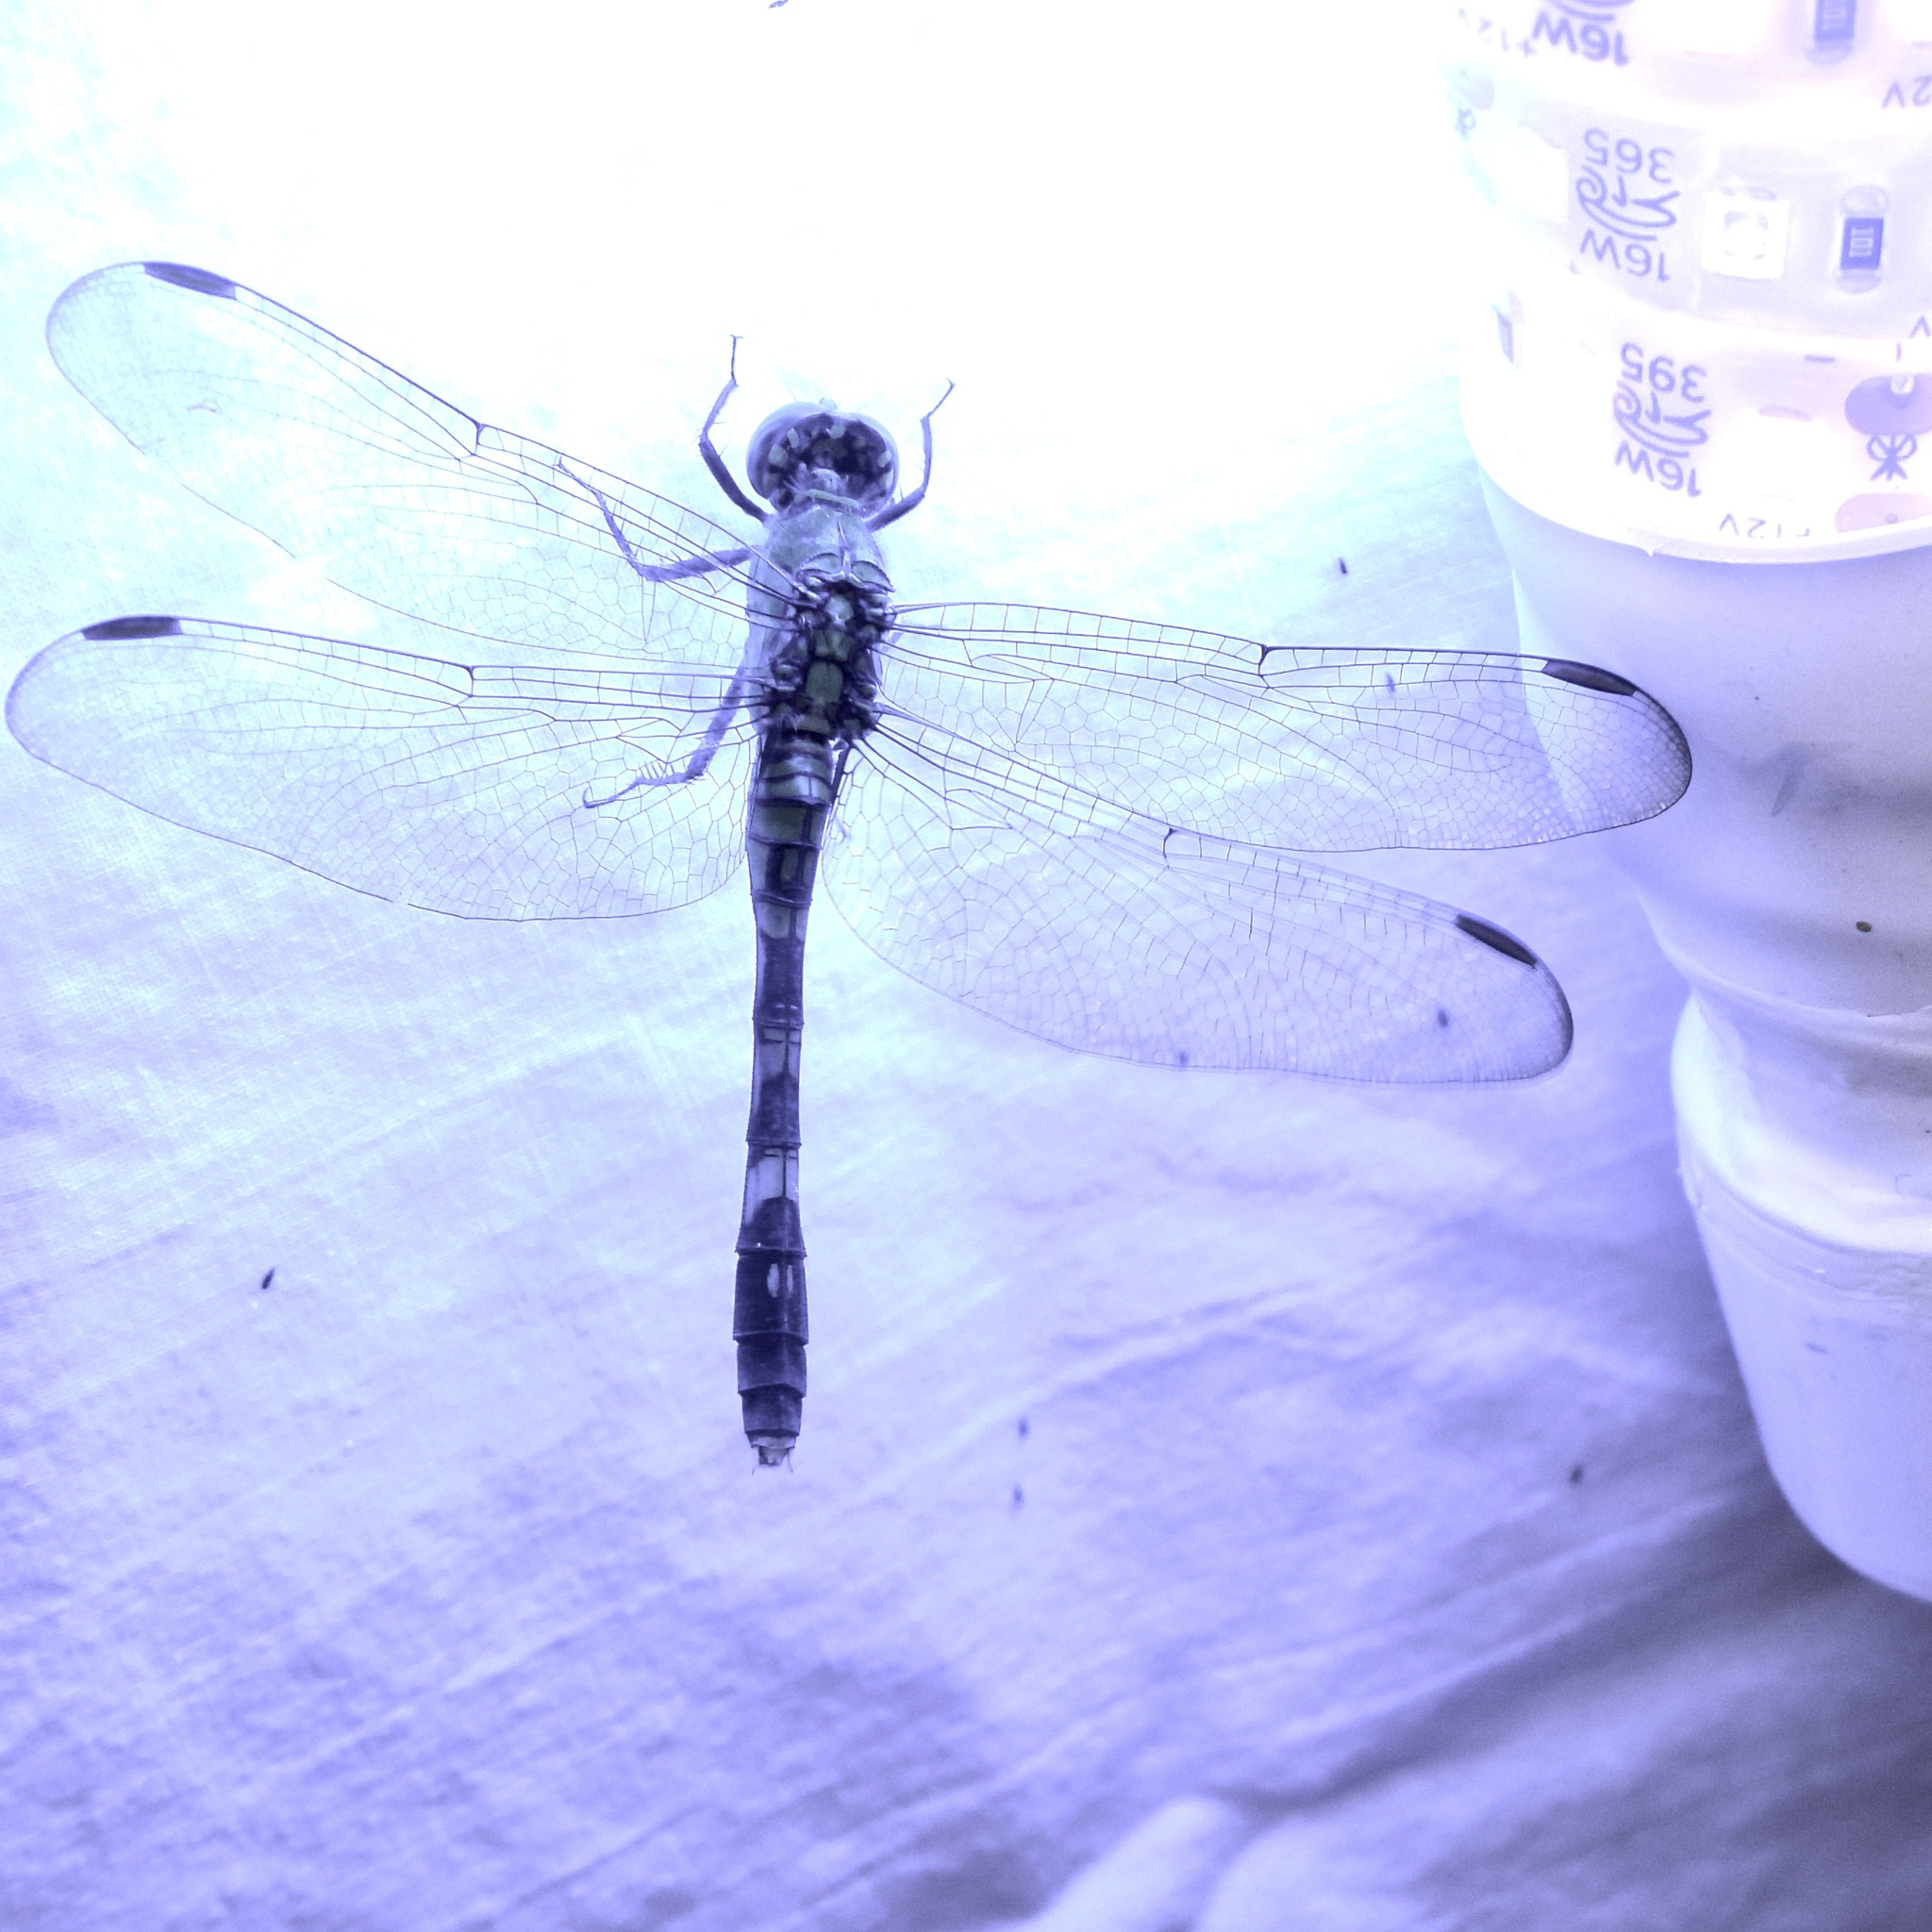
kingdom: Animalia
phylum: Arthropoda
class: Insecta
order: Odonata
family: Libellulidae
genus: Erythemis
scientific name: Erythemis simplicicollis
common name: Eastern pondhawk
